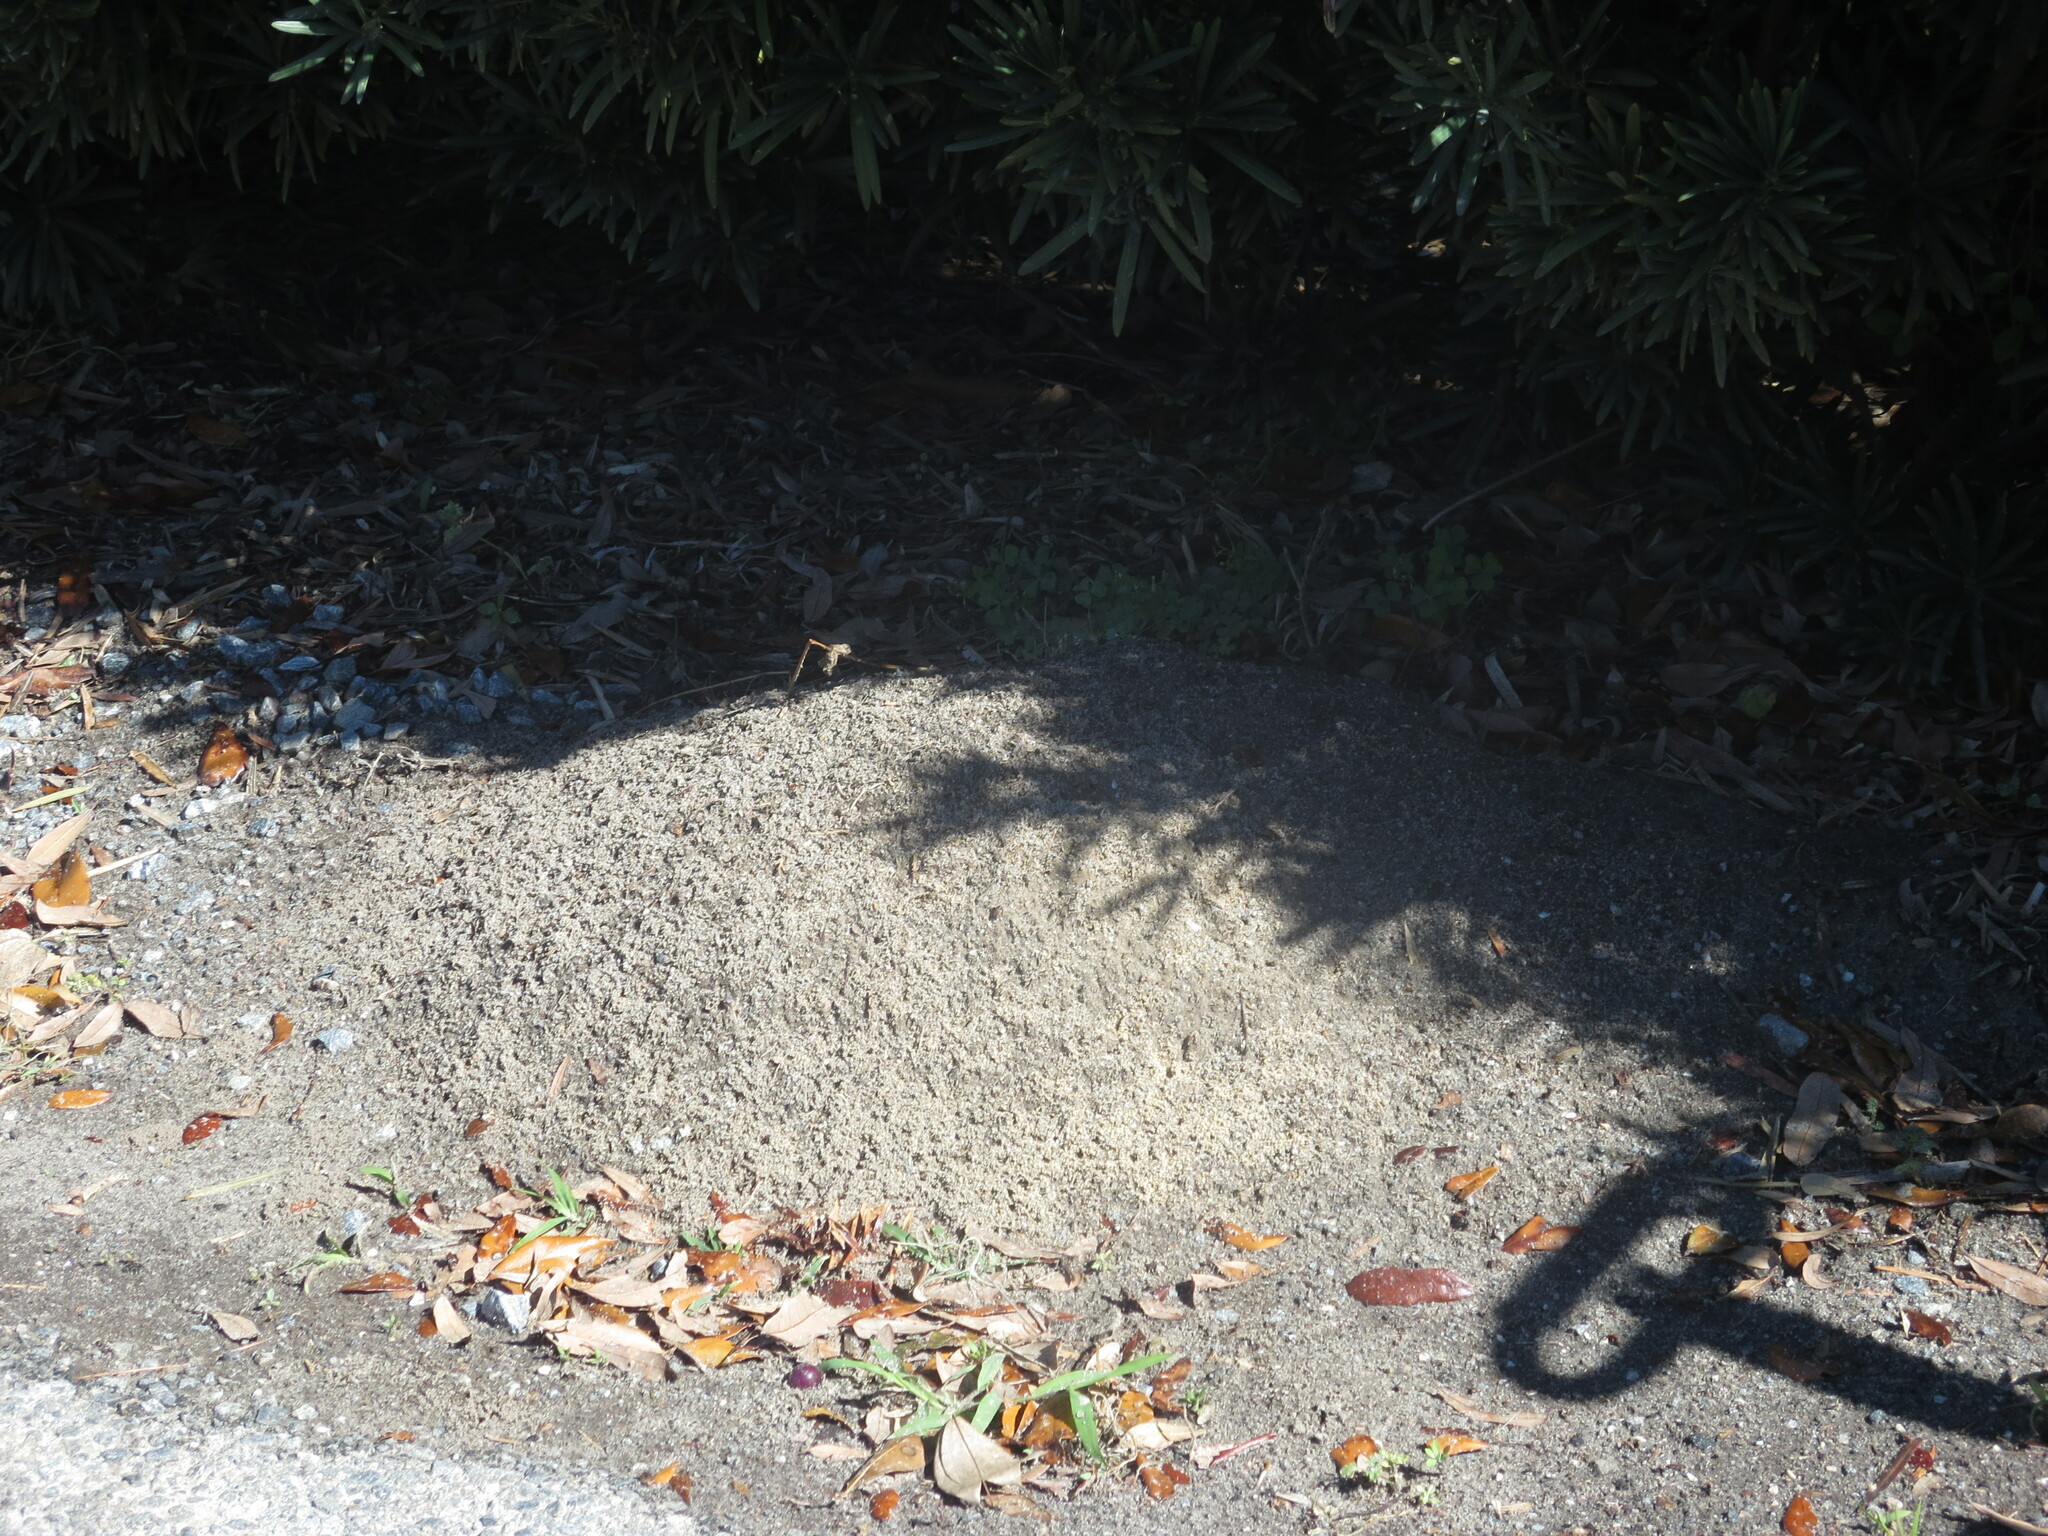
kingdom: Animalia
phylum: Arthropoda
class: Insecta
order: Hymenoptera
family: Formicidae
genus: Solenopsis
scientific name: Solenopsis invicta
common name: Red imported fire ant
